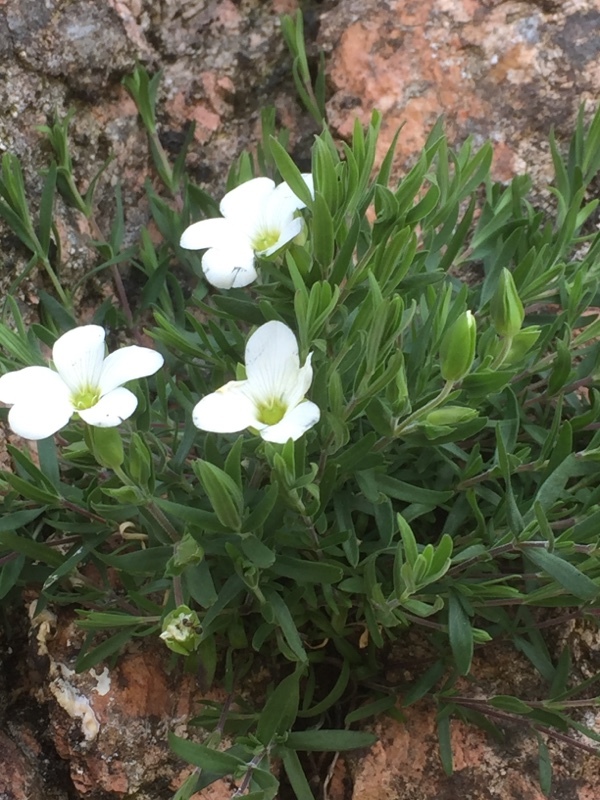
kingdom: Plantae
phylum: Tracheophyta
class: Magnoliopsida
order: Caryophyllales
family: Caryophyllaceae
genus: Arenaria
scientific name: Arenaria montana
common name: Mountain sandwort
